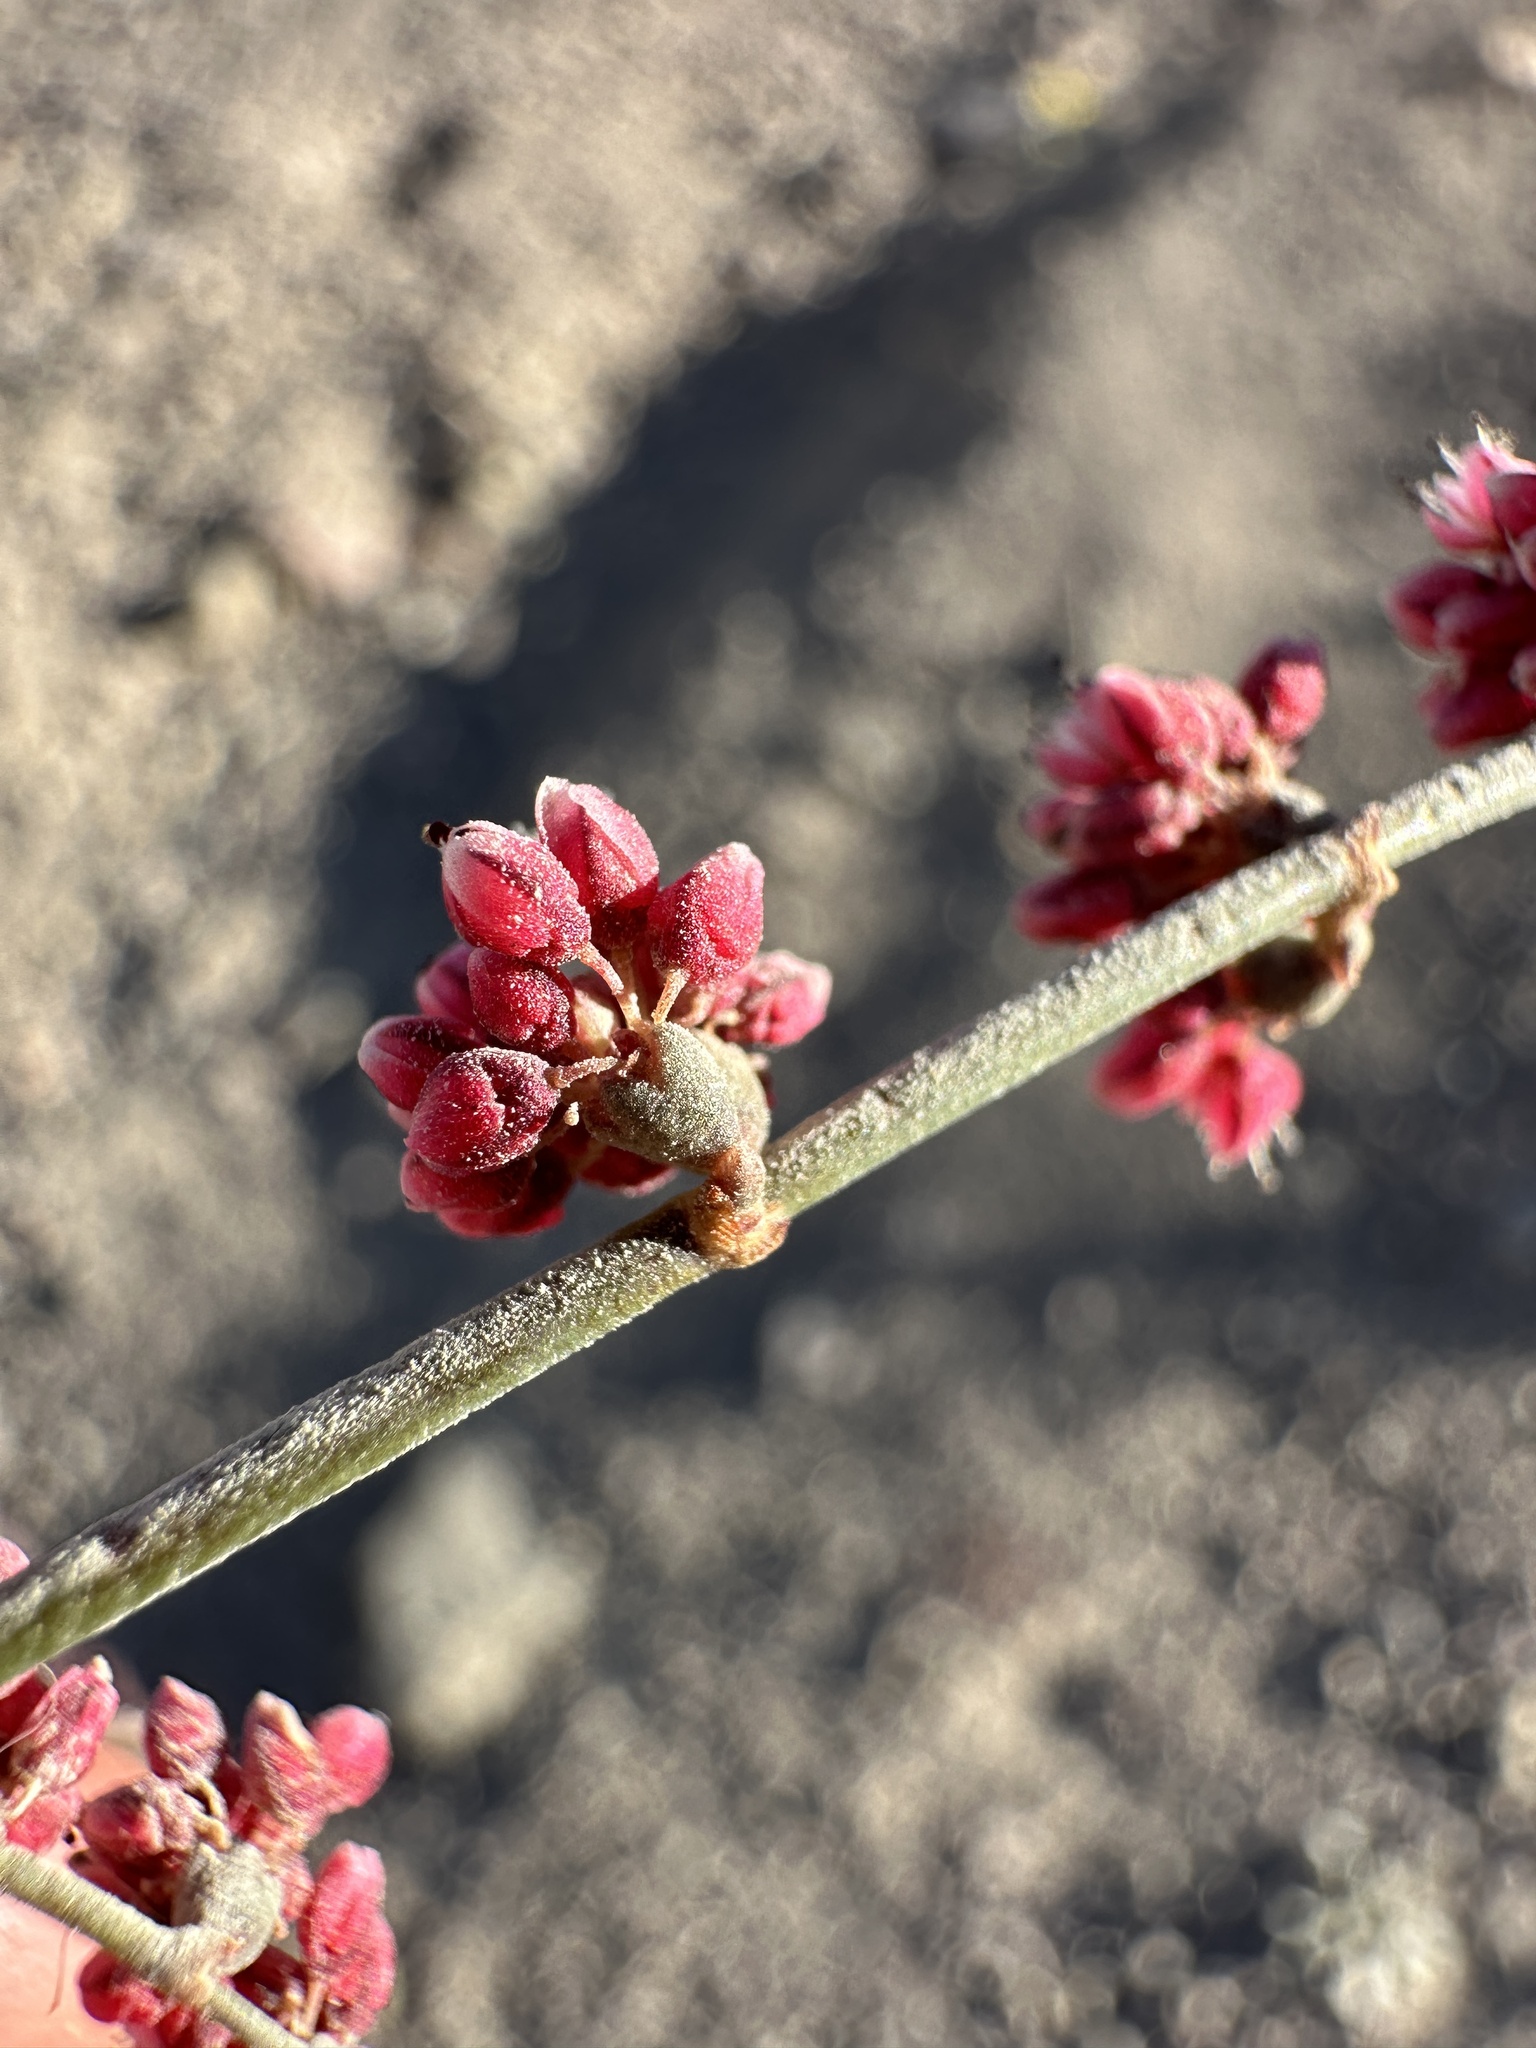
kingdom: Plantae
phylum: Tracheophyta
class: Magnoliopsida
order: Caryophyllales
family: Polygonaceae
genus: Eriogonum
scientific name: Eriogonum deflexum
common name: Skeleton-weed
